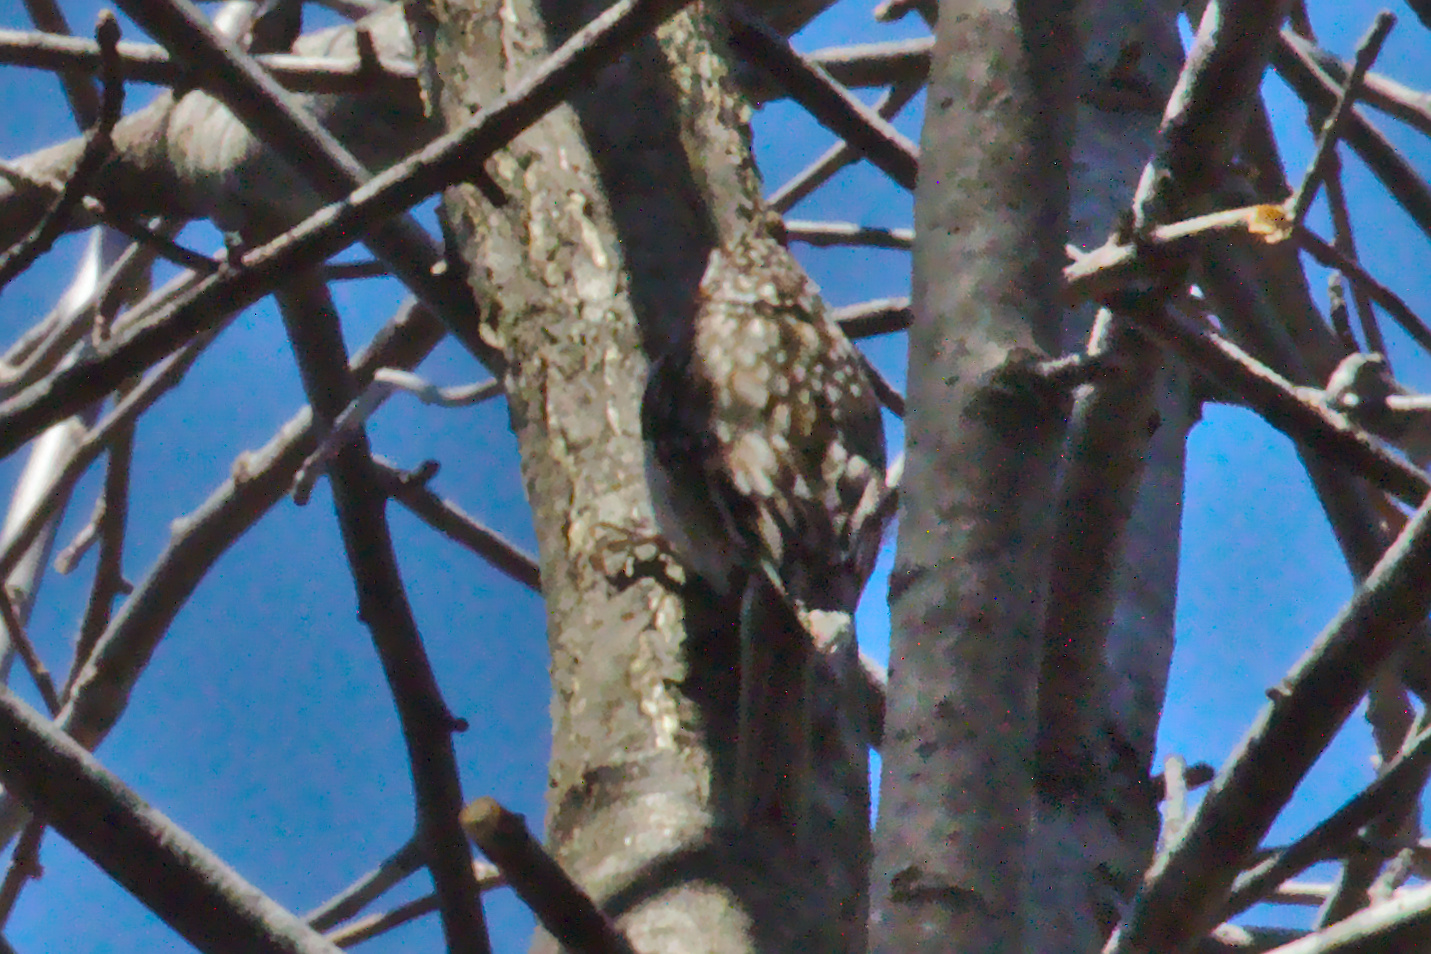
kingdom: Animalia
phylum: Chordata
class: Aves
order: Passeriformes
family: Certhiidae
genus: Certhia
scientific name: Certhia americana
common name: Brown creeper
